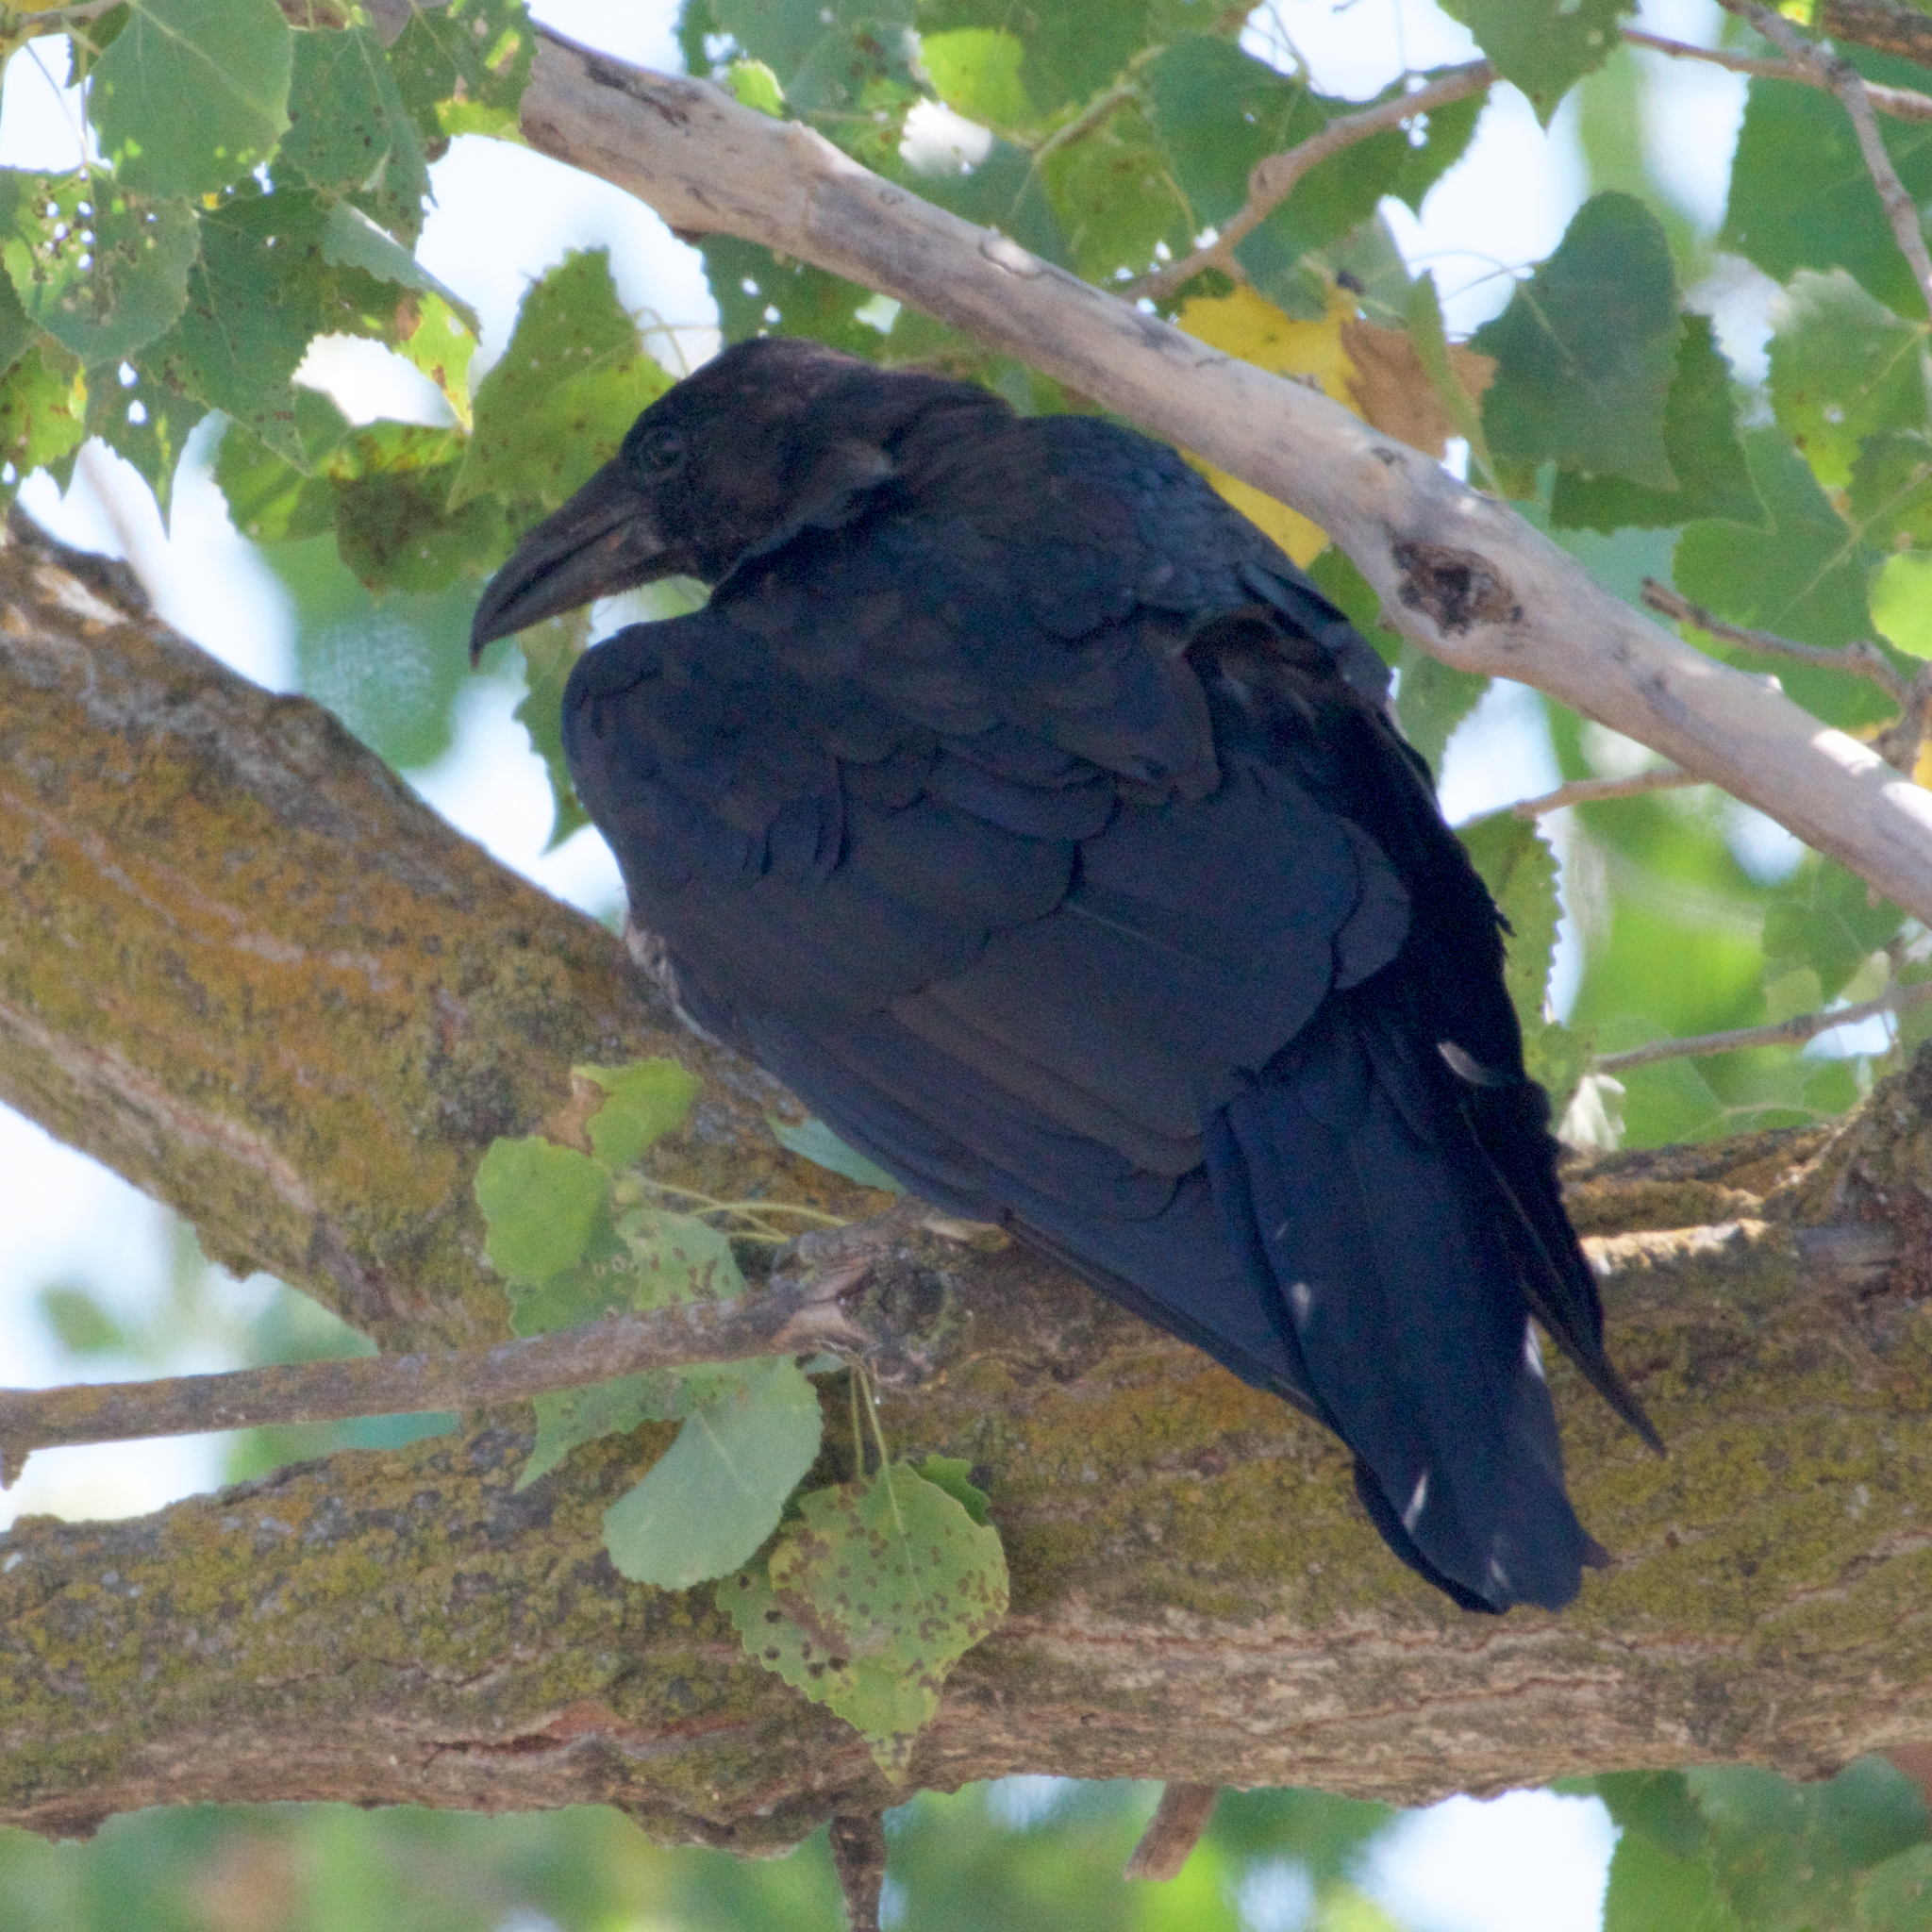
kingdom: Animalia
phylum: Chordata
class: Aves
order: Passeriformes
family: Corvidae
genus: Corvus
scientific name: Corvus corax
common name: Common raven
